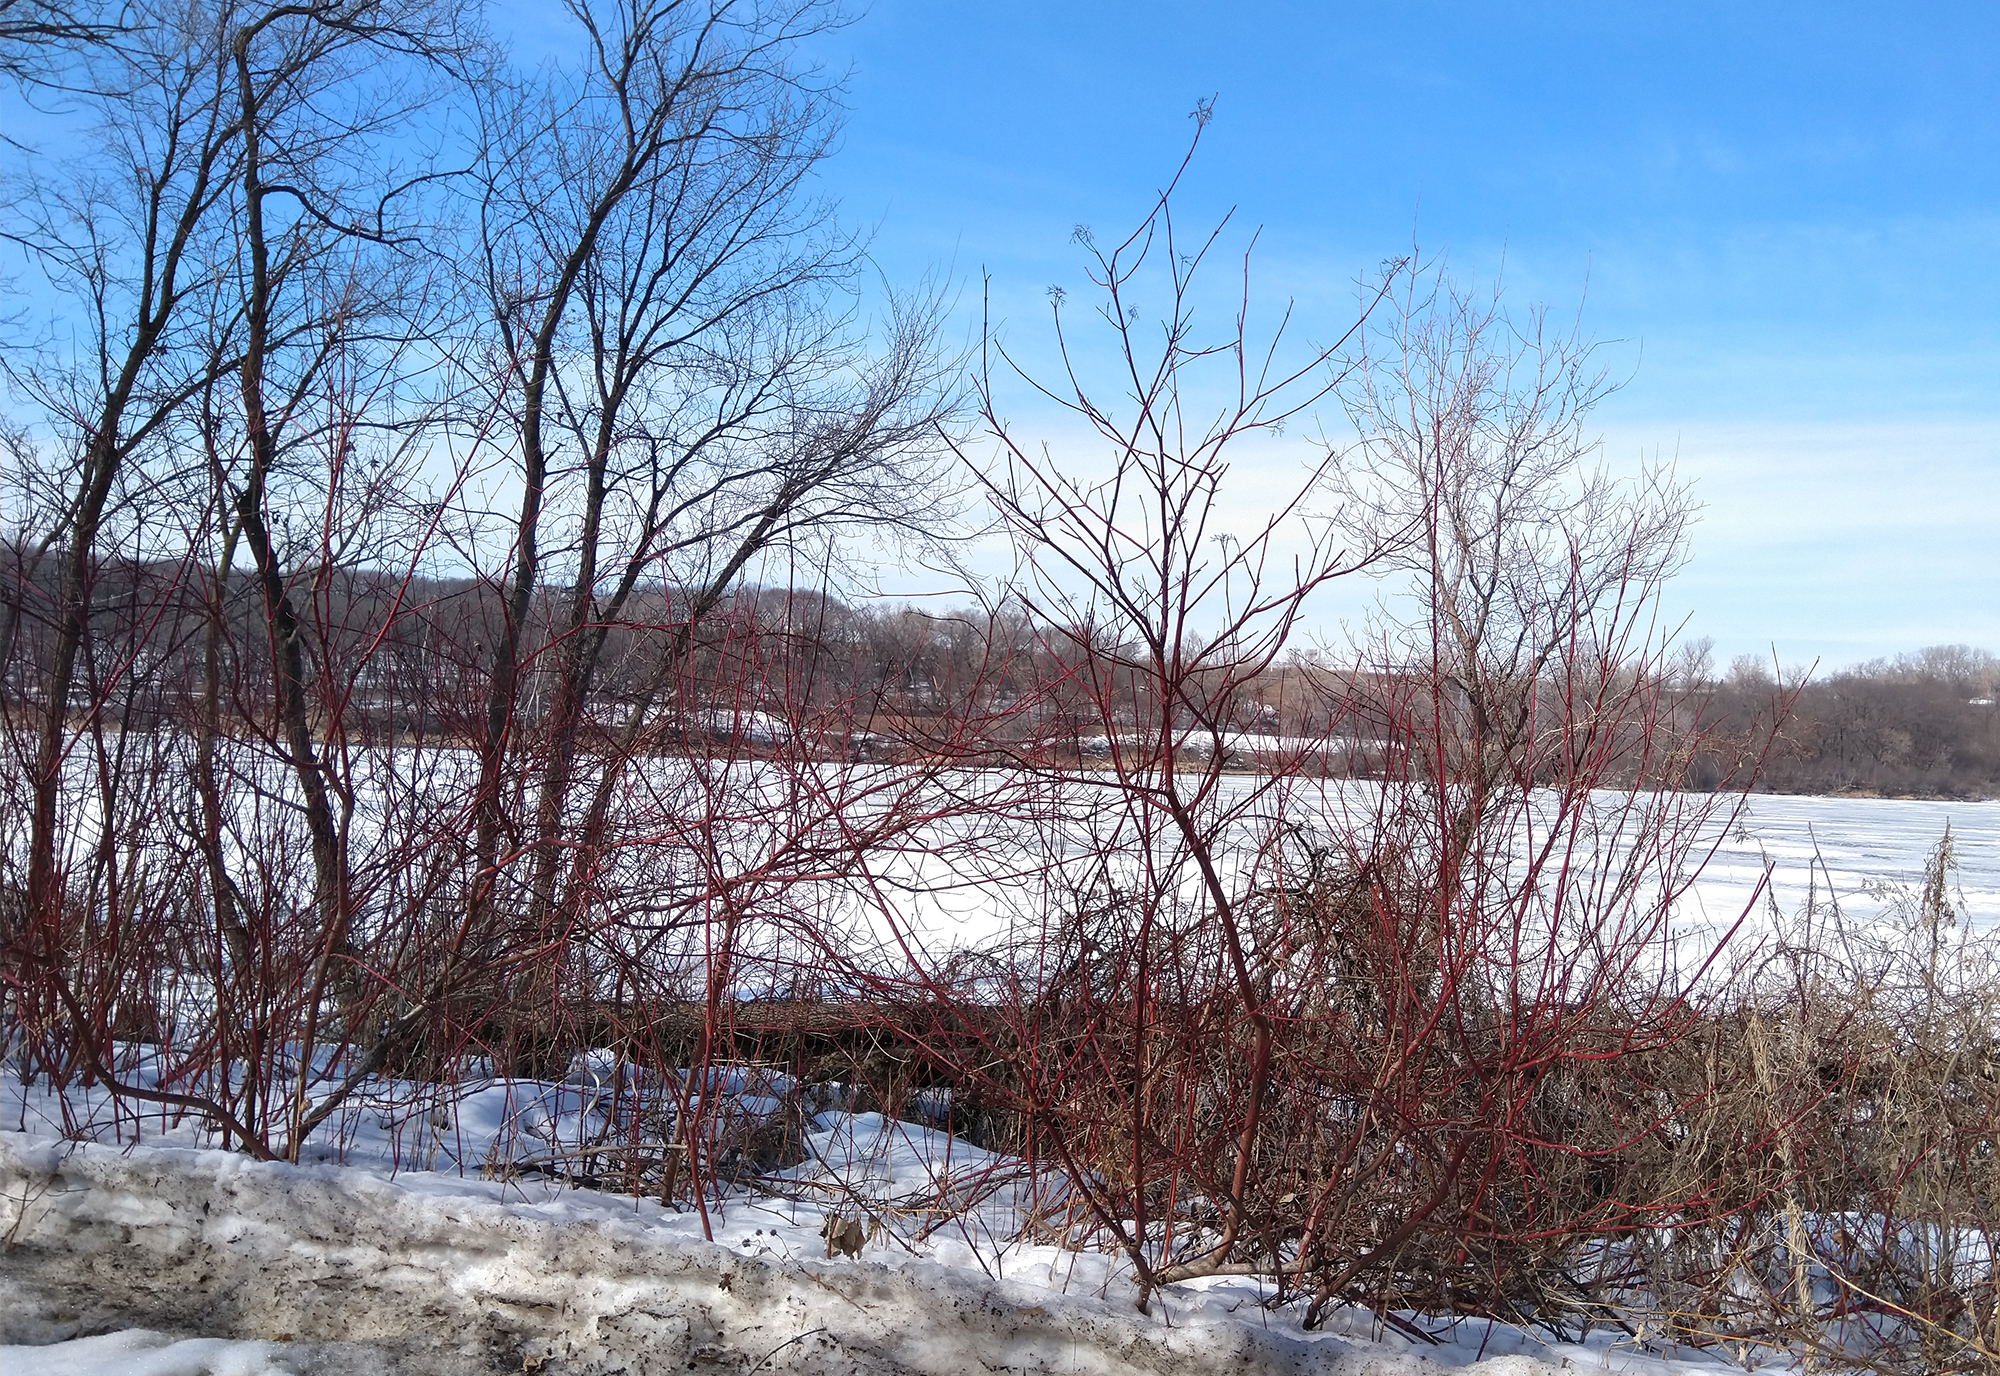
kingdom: Plantae
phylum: Tracheophyta
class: Magnoliopsida
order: Cornales
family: Cornaceae
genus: Cornus
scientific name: Cornus sericea
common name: Red-osier dogwood
